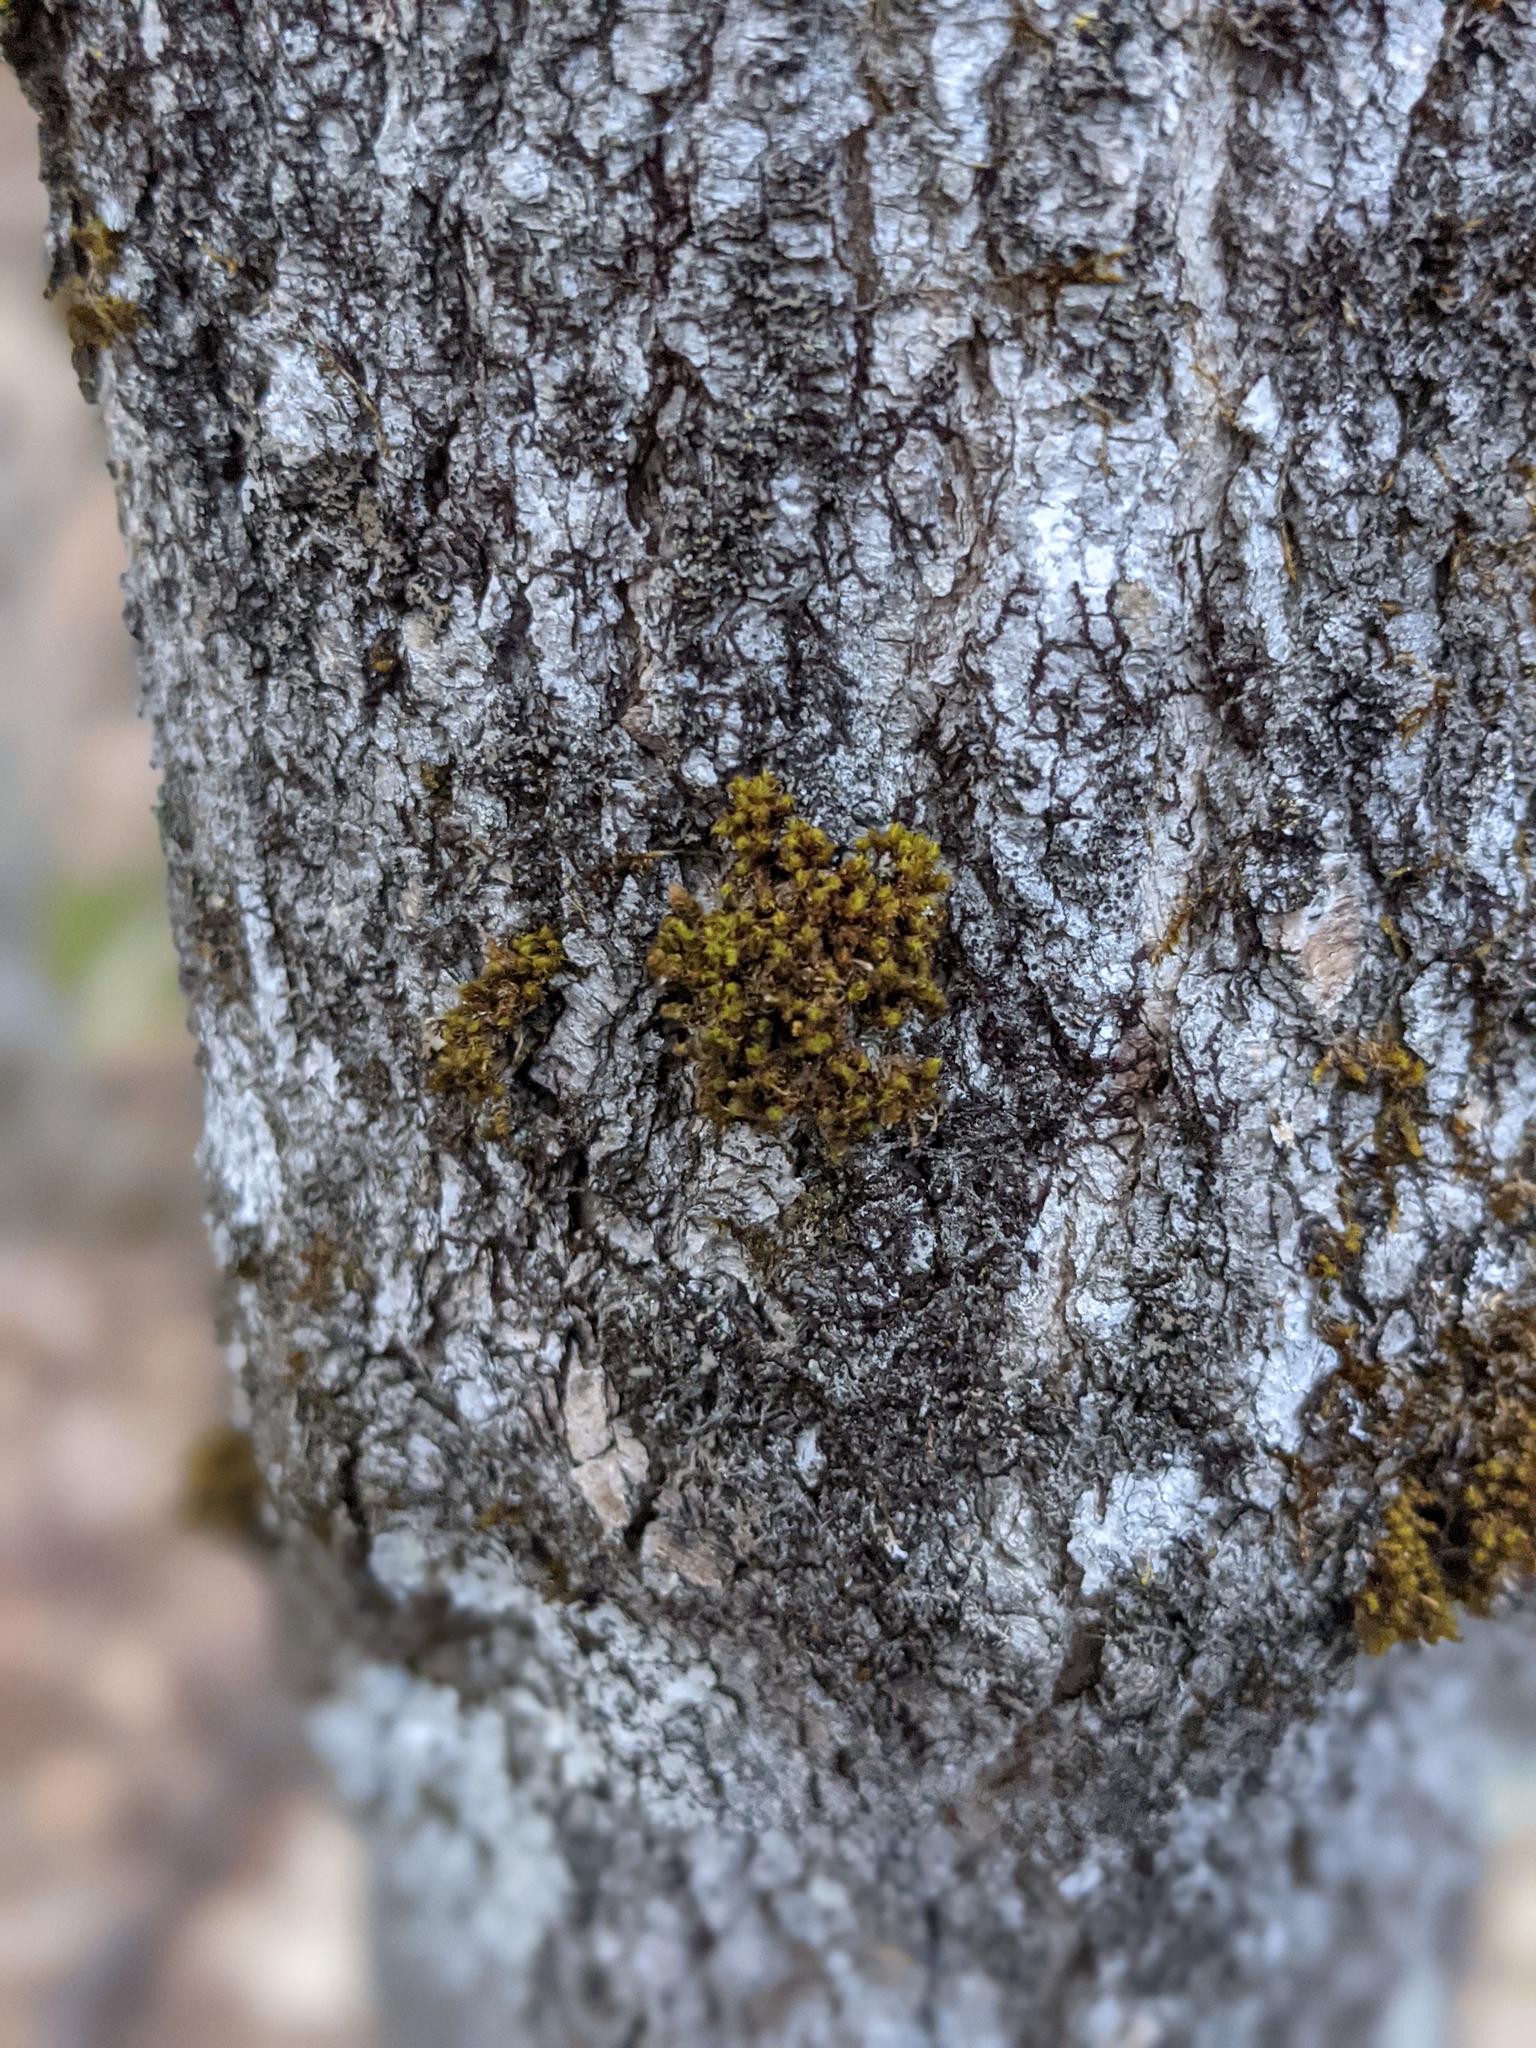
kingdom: Plantae
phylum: Bryophyta
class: Bryopsida
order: Orthotrichales
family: Orthotrichaceae
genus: Ulota
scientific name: Ulota crispa
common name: Crisped pincushion moss
